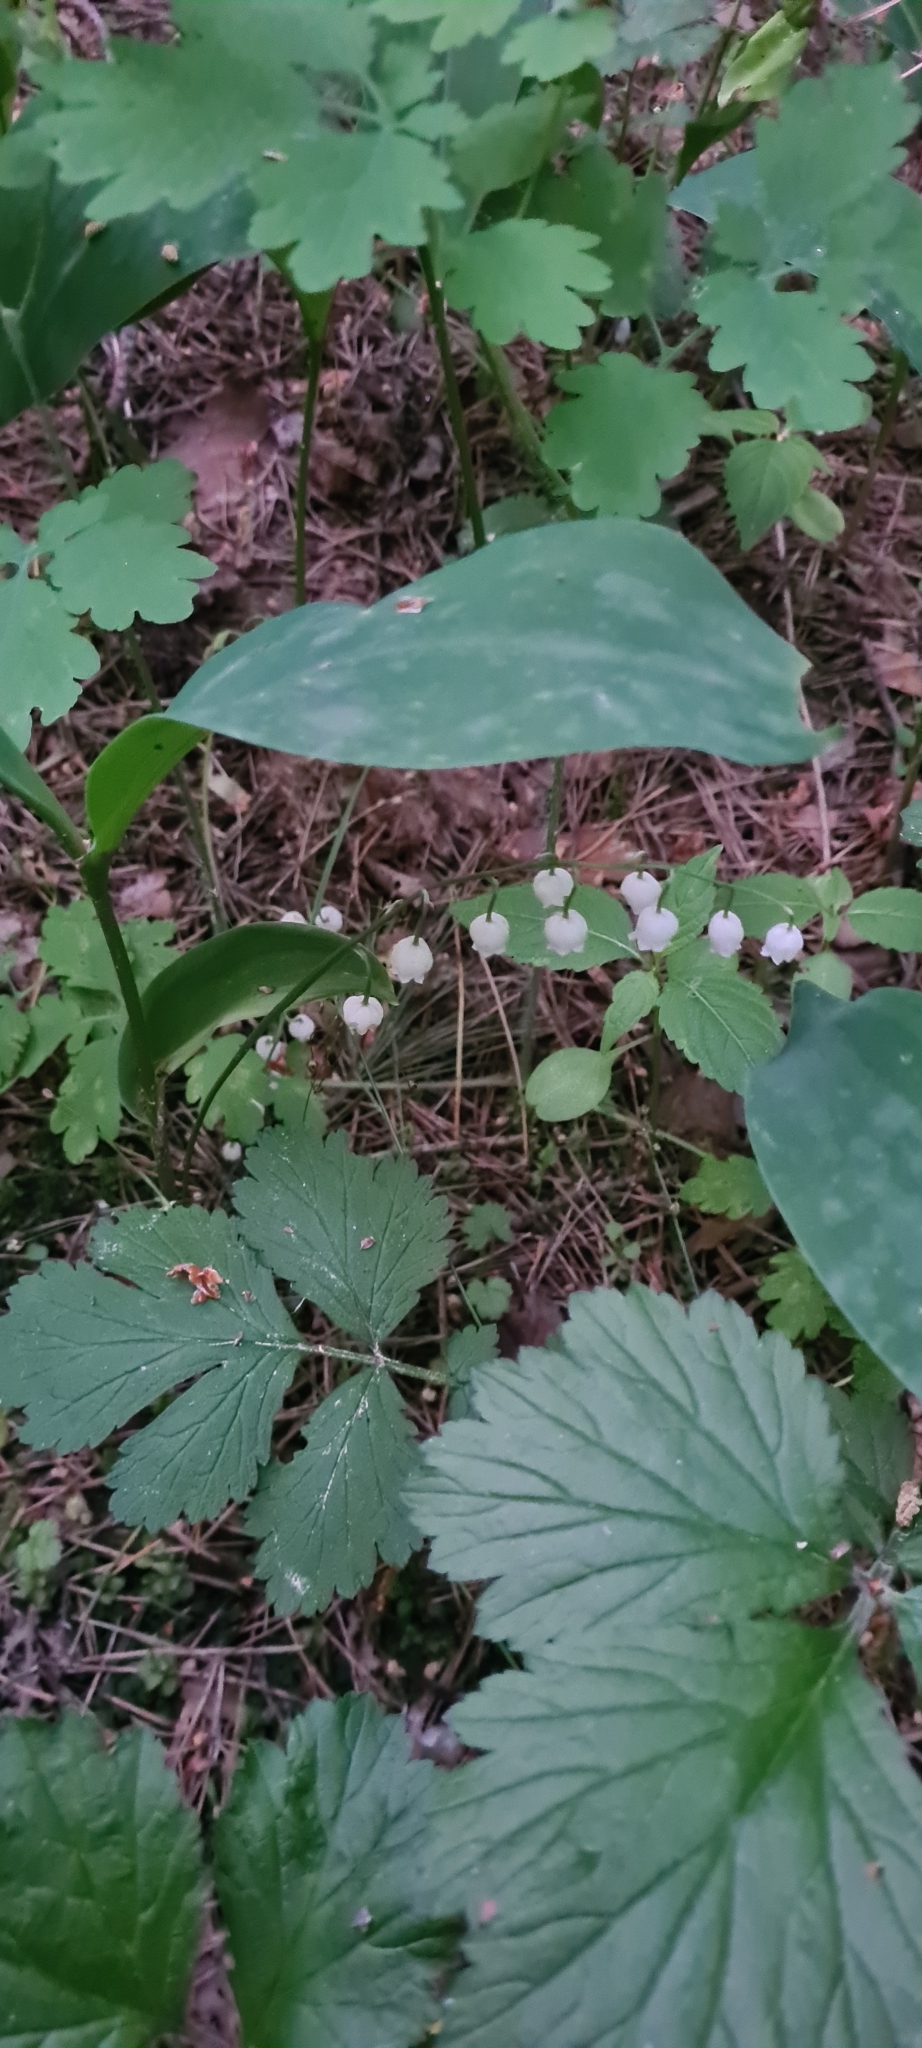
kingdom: Plantae
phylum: Tracheophyta
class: Liliopsida
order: Asparagales
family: Asparagaceae
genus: Convallaria
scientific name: Convallaria majalis
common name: Lily-of-the-valley
